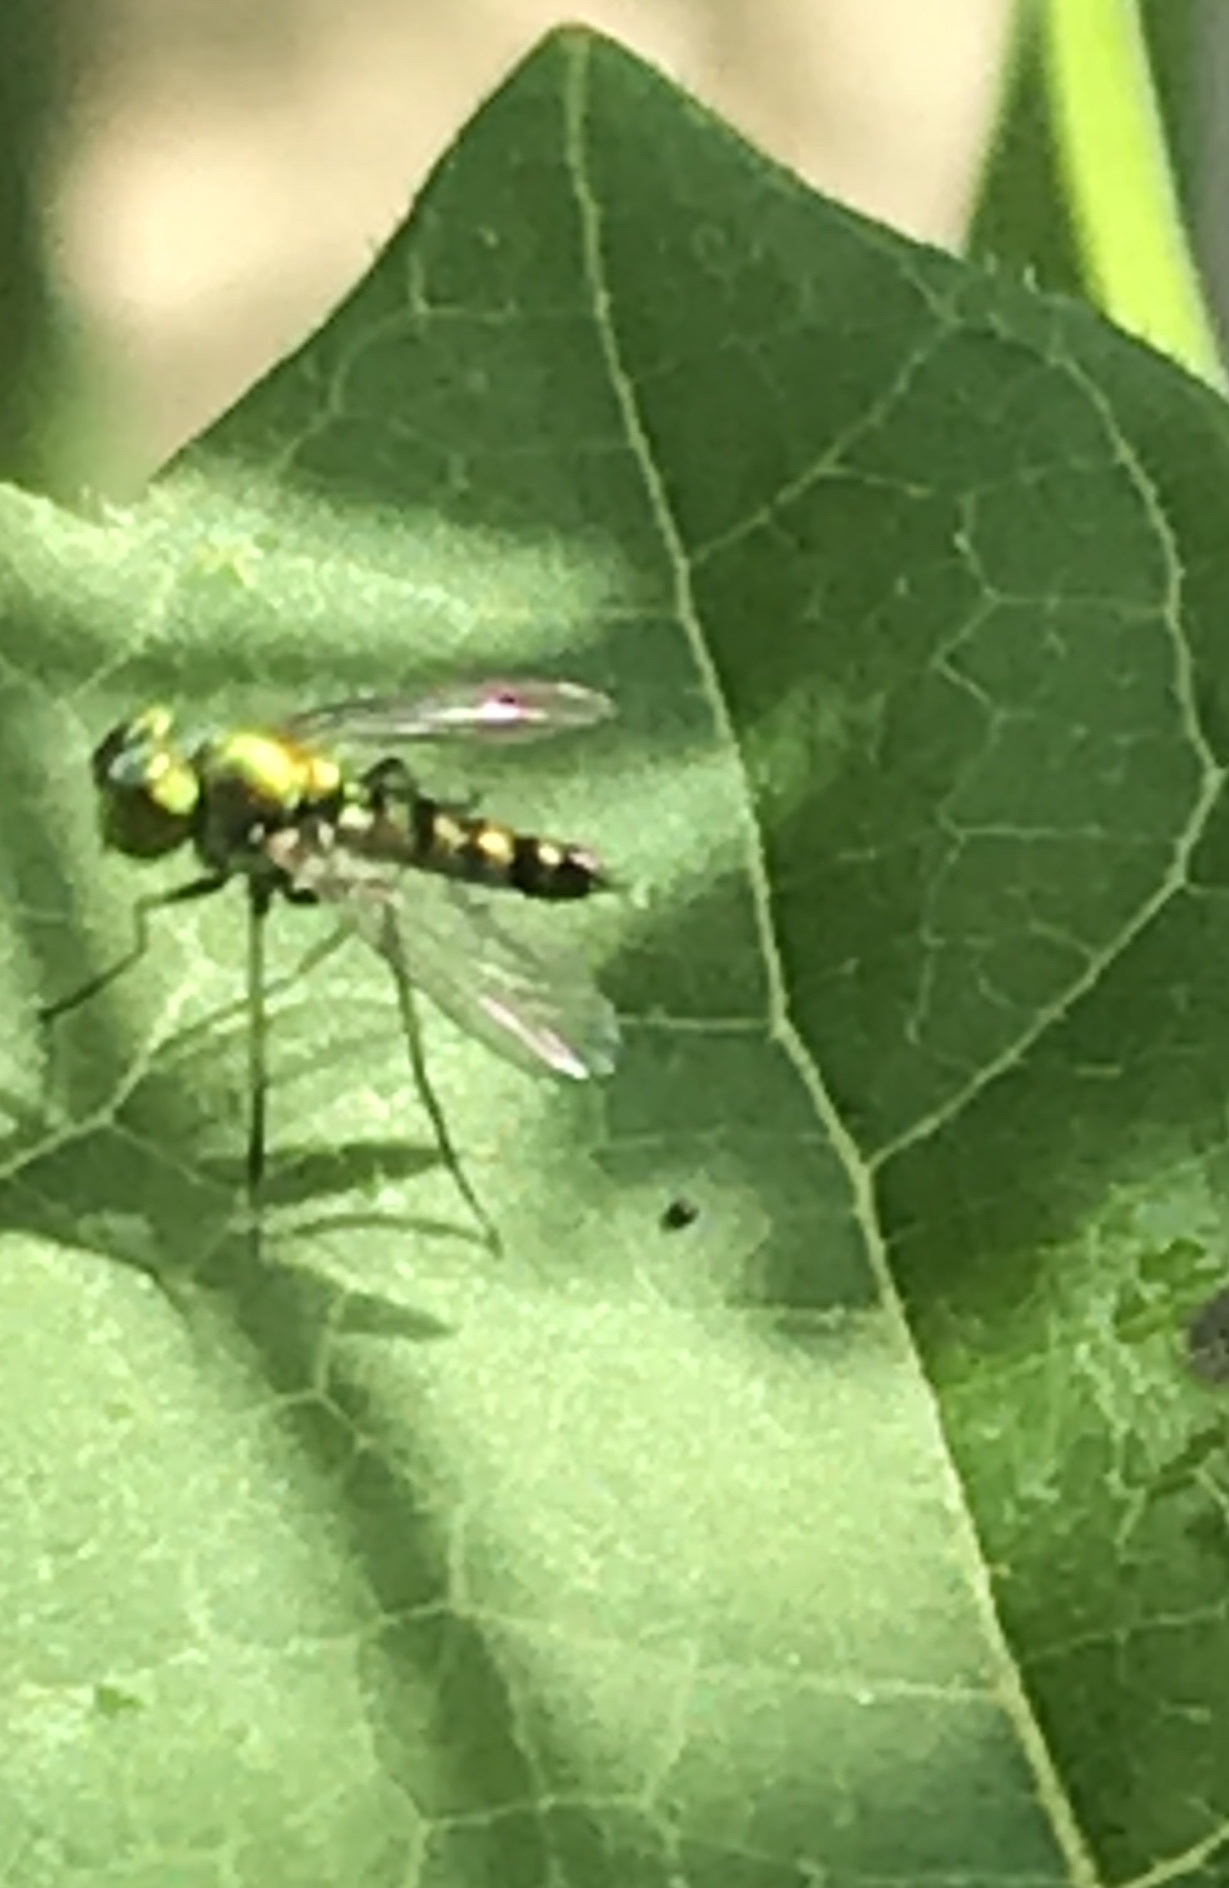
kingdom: Animalia
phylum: Arthropoda
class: Insecta
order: Diptera
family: Dolichopodidae
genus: Condylostylus
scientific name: Condylostylus
